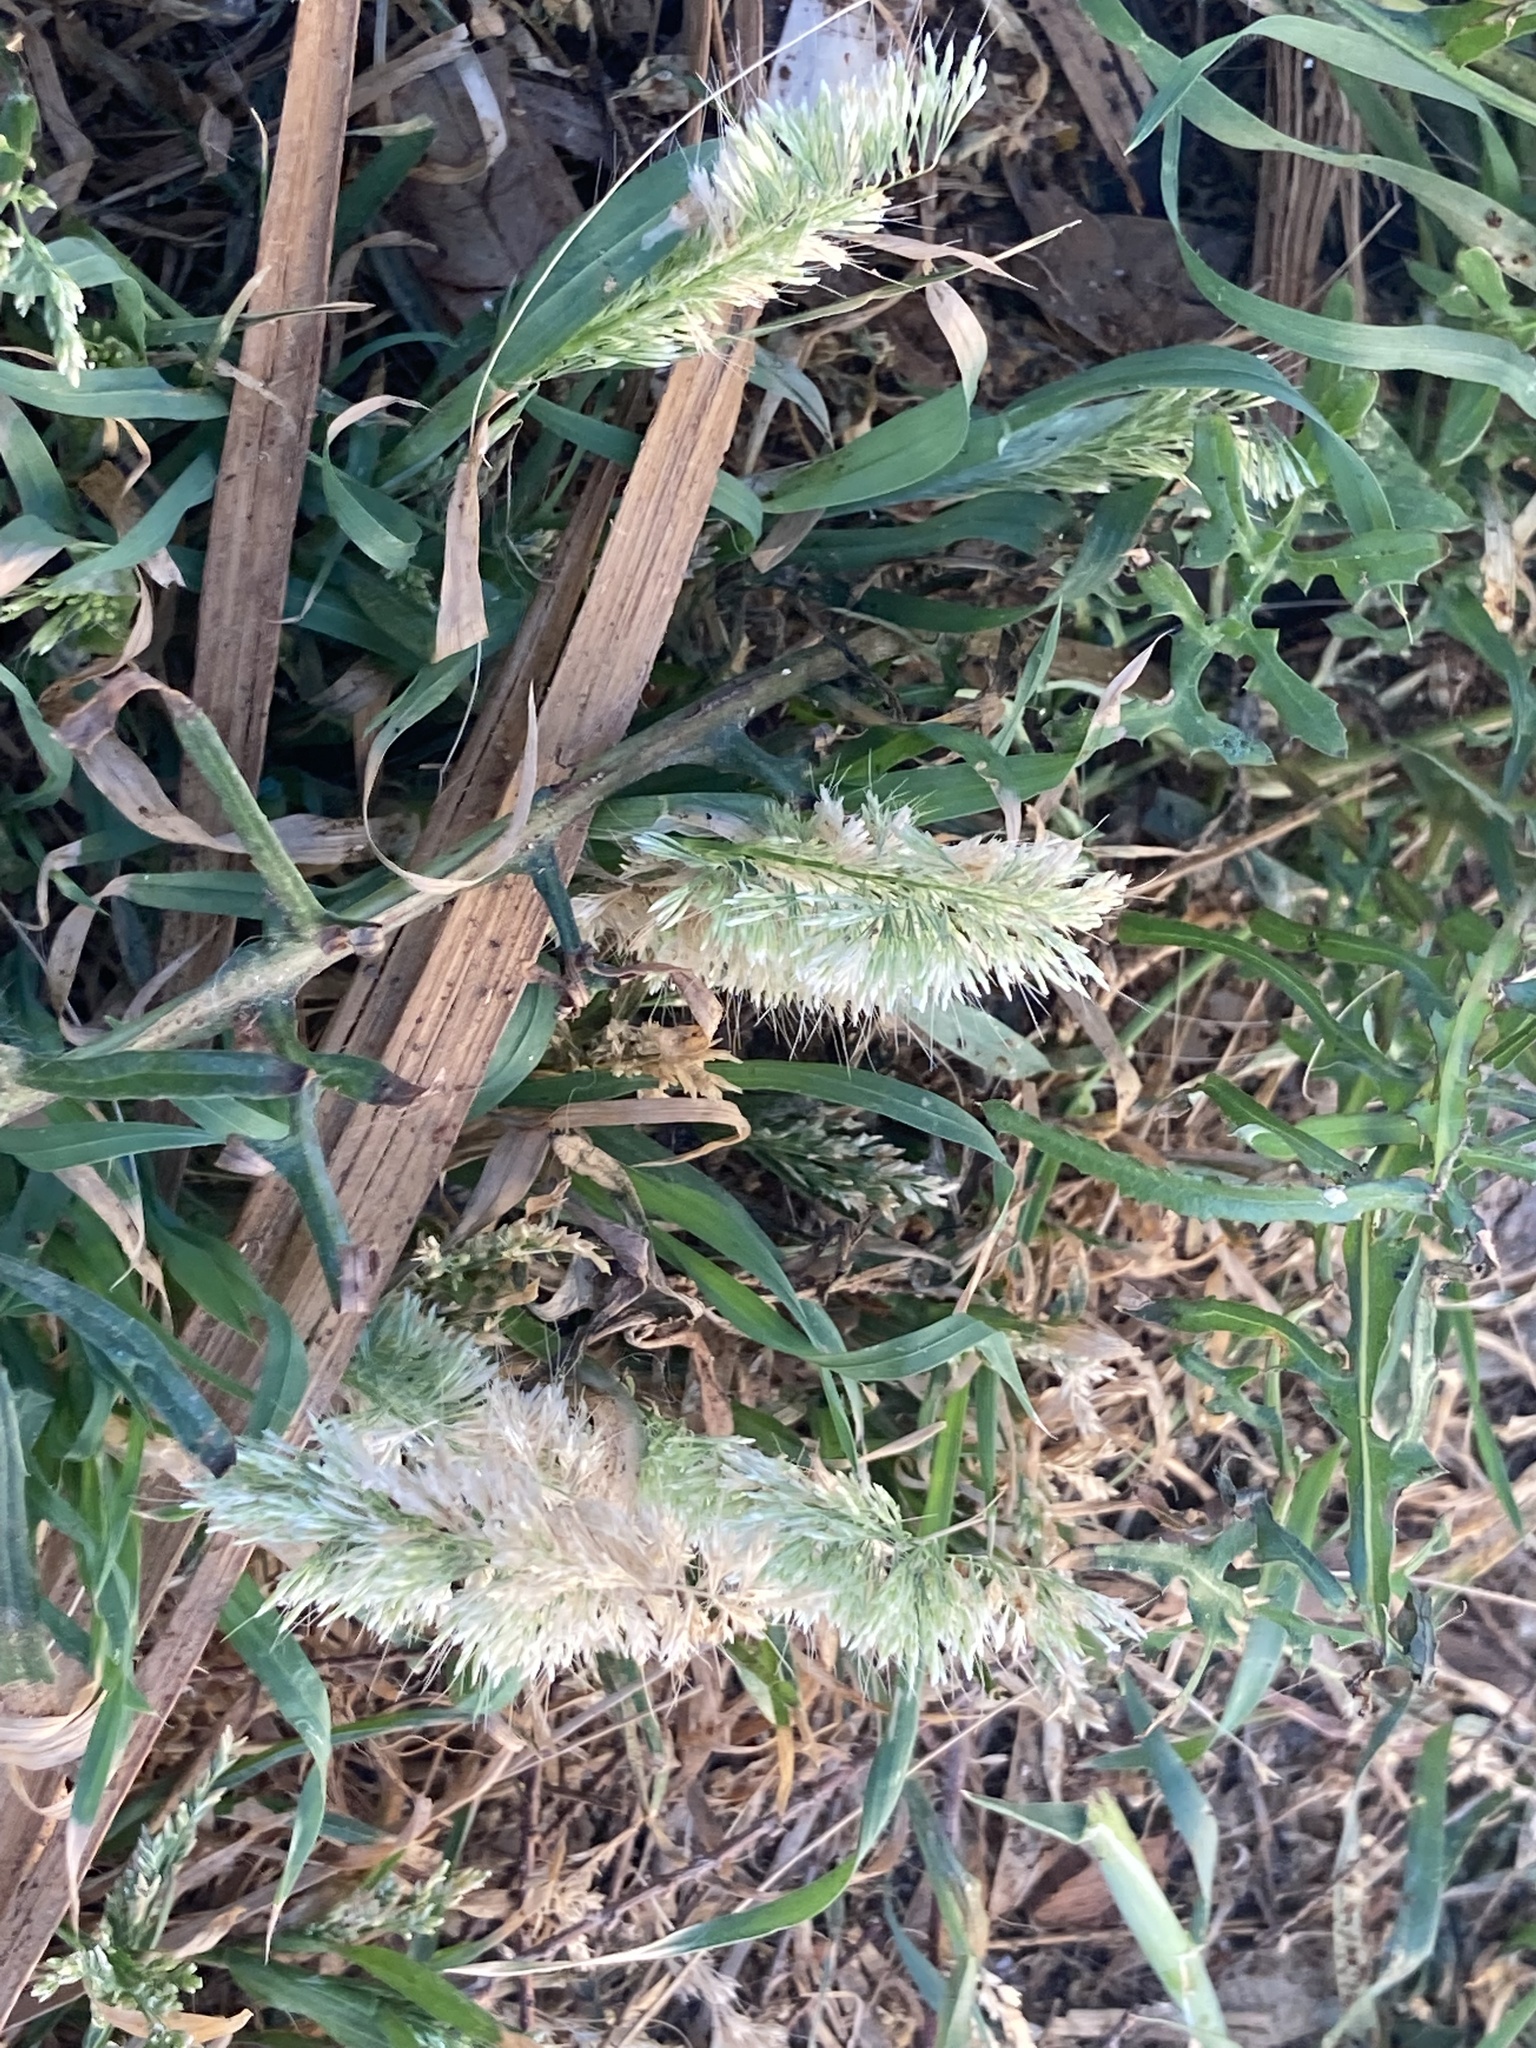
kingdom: Plantae
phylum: Tracheophyta
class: Liliopsida
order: Poales
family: Poaceae
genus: Lamarckia
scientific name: Lamarckia aurea
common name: Golden dog's-tail
